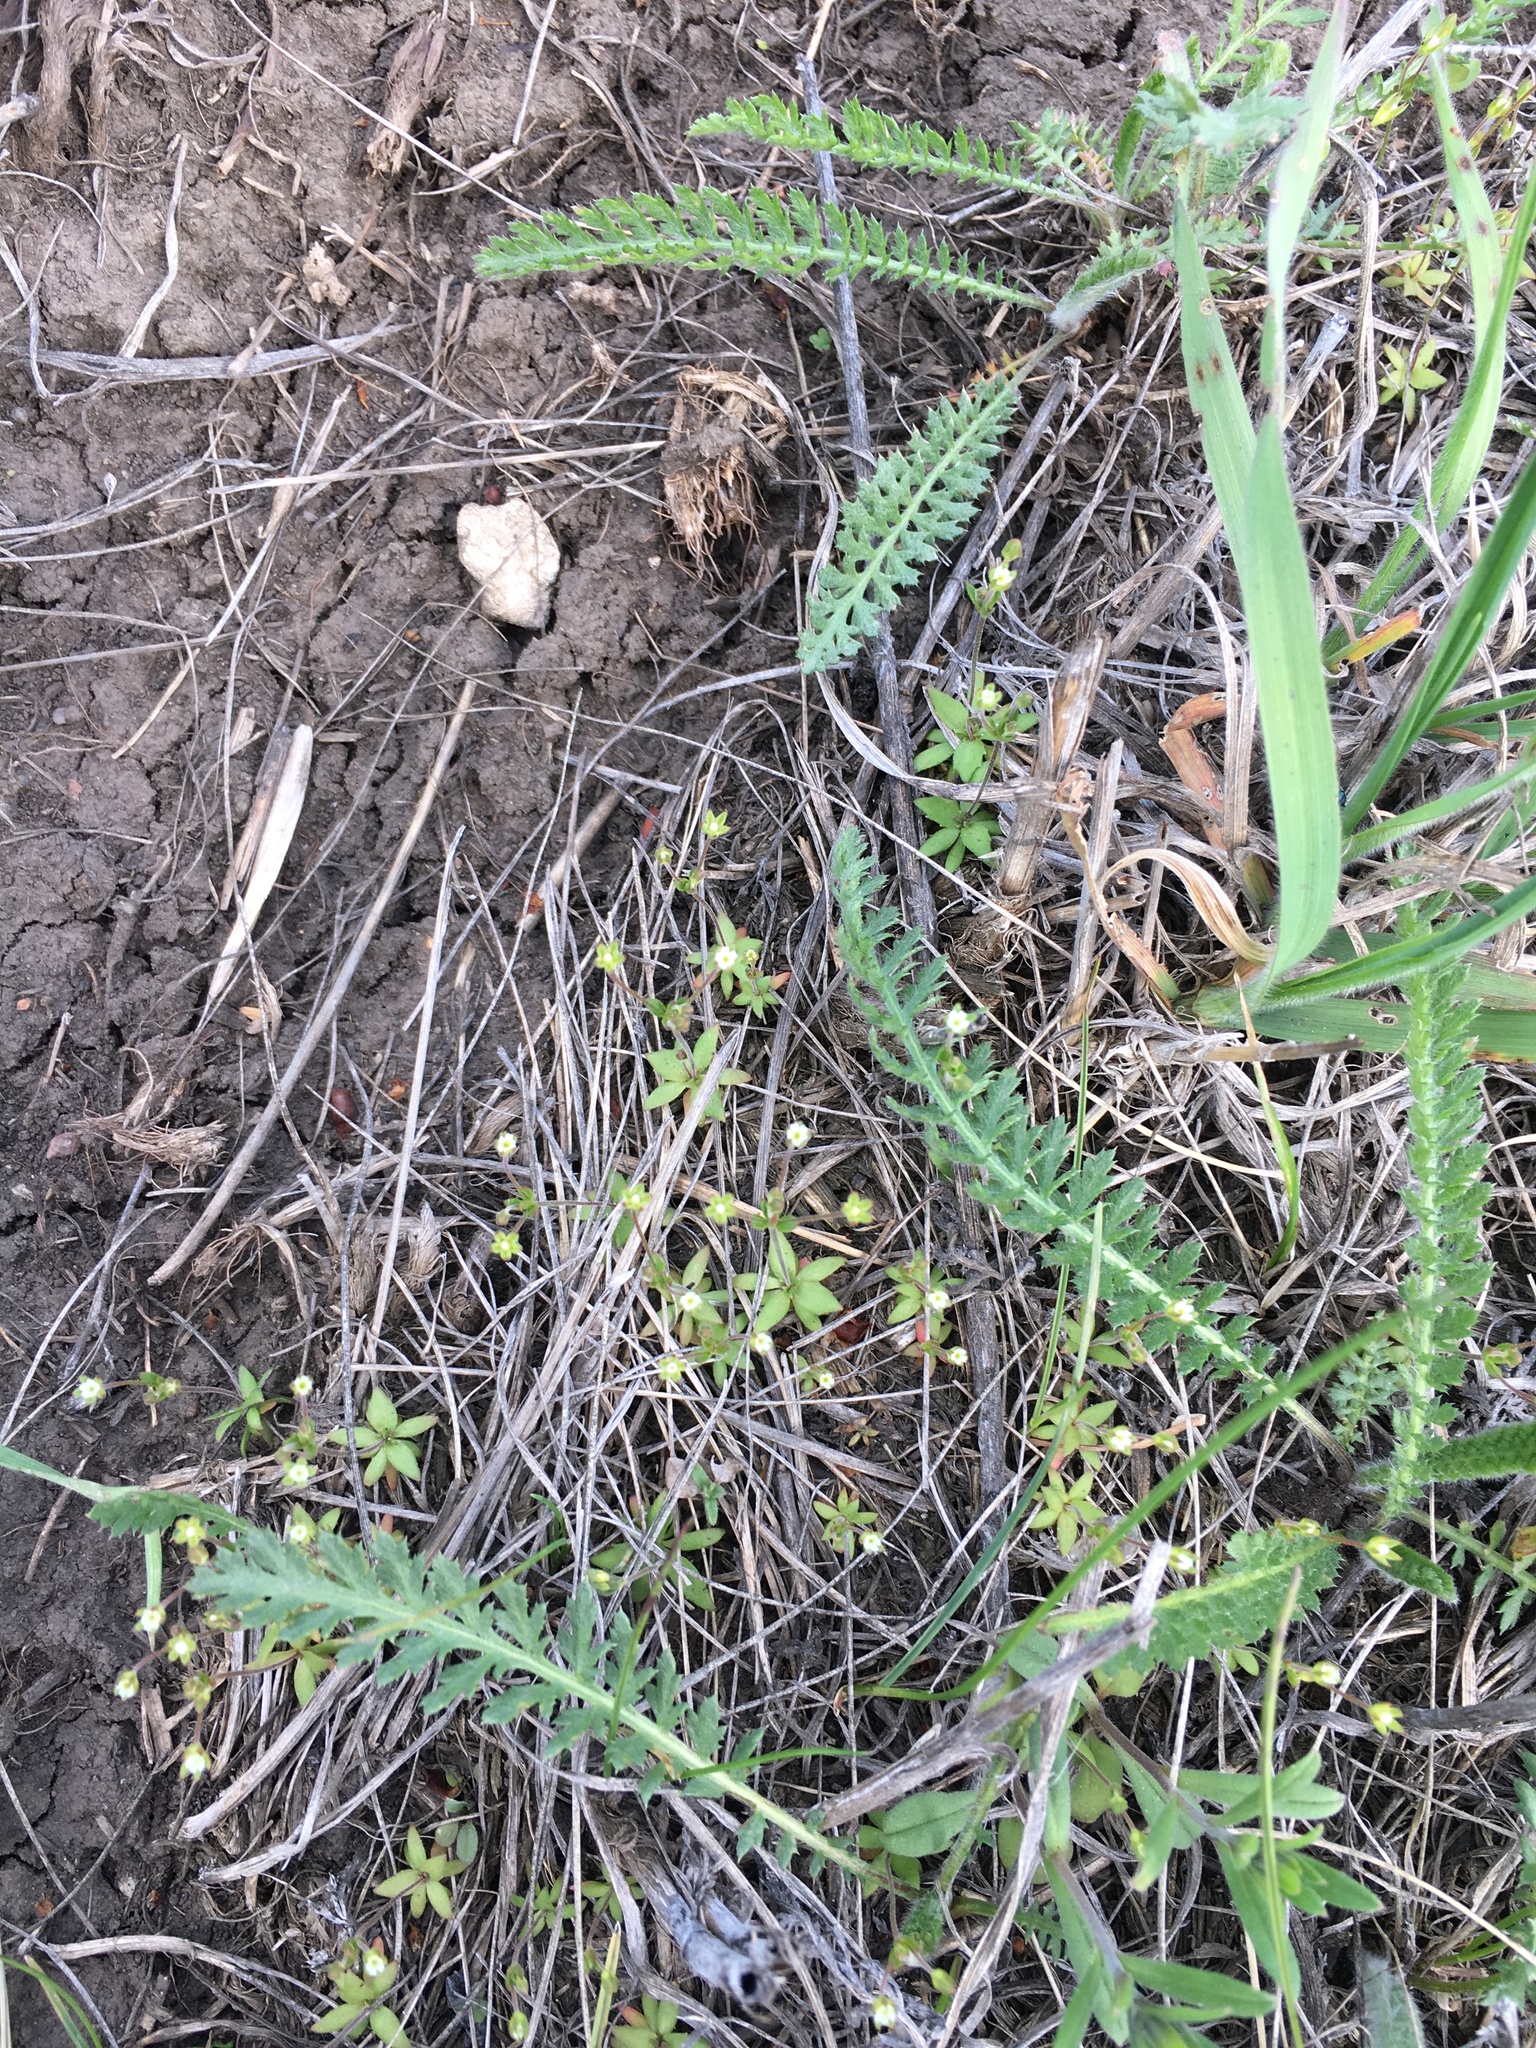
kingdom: Plantae
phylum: Tracheophyta
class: Magnoliopsida
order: Ericales
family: Primulaceae
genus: Androsace
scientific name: Androsace elongata
